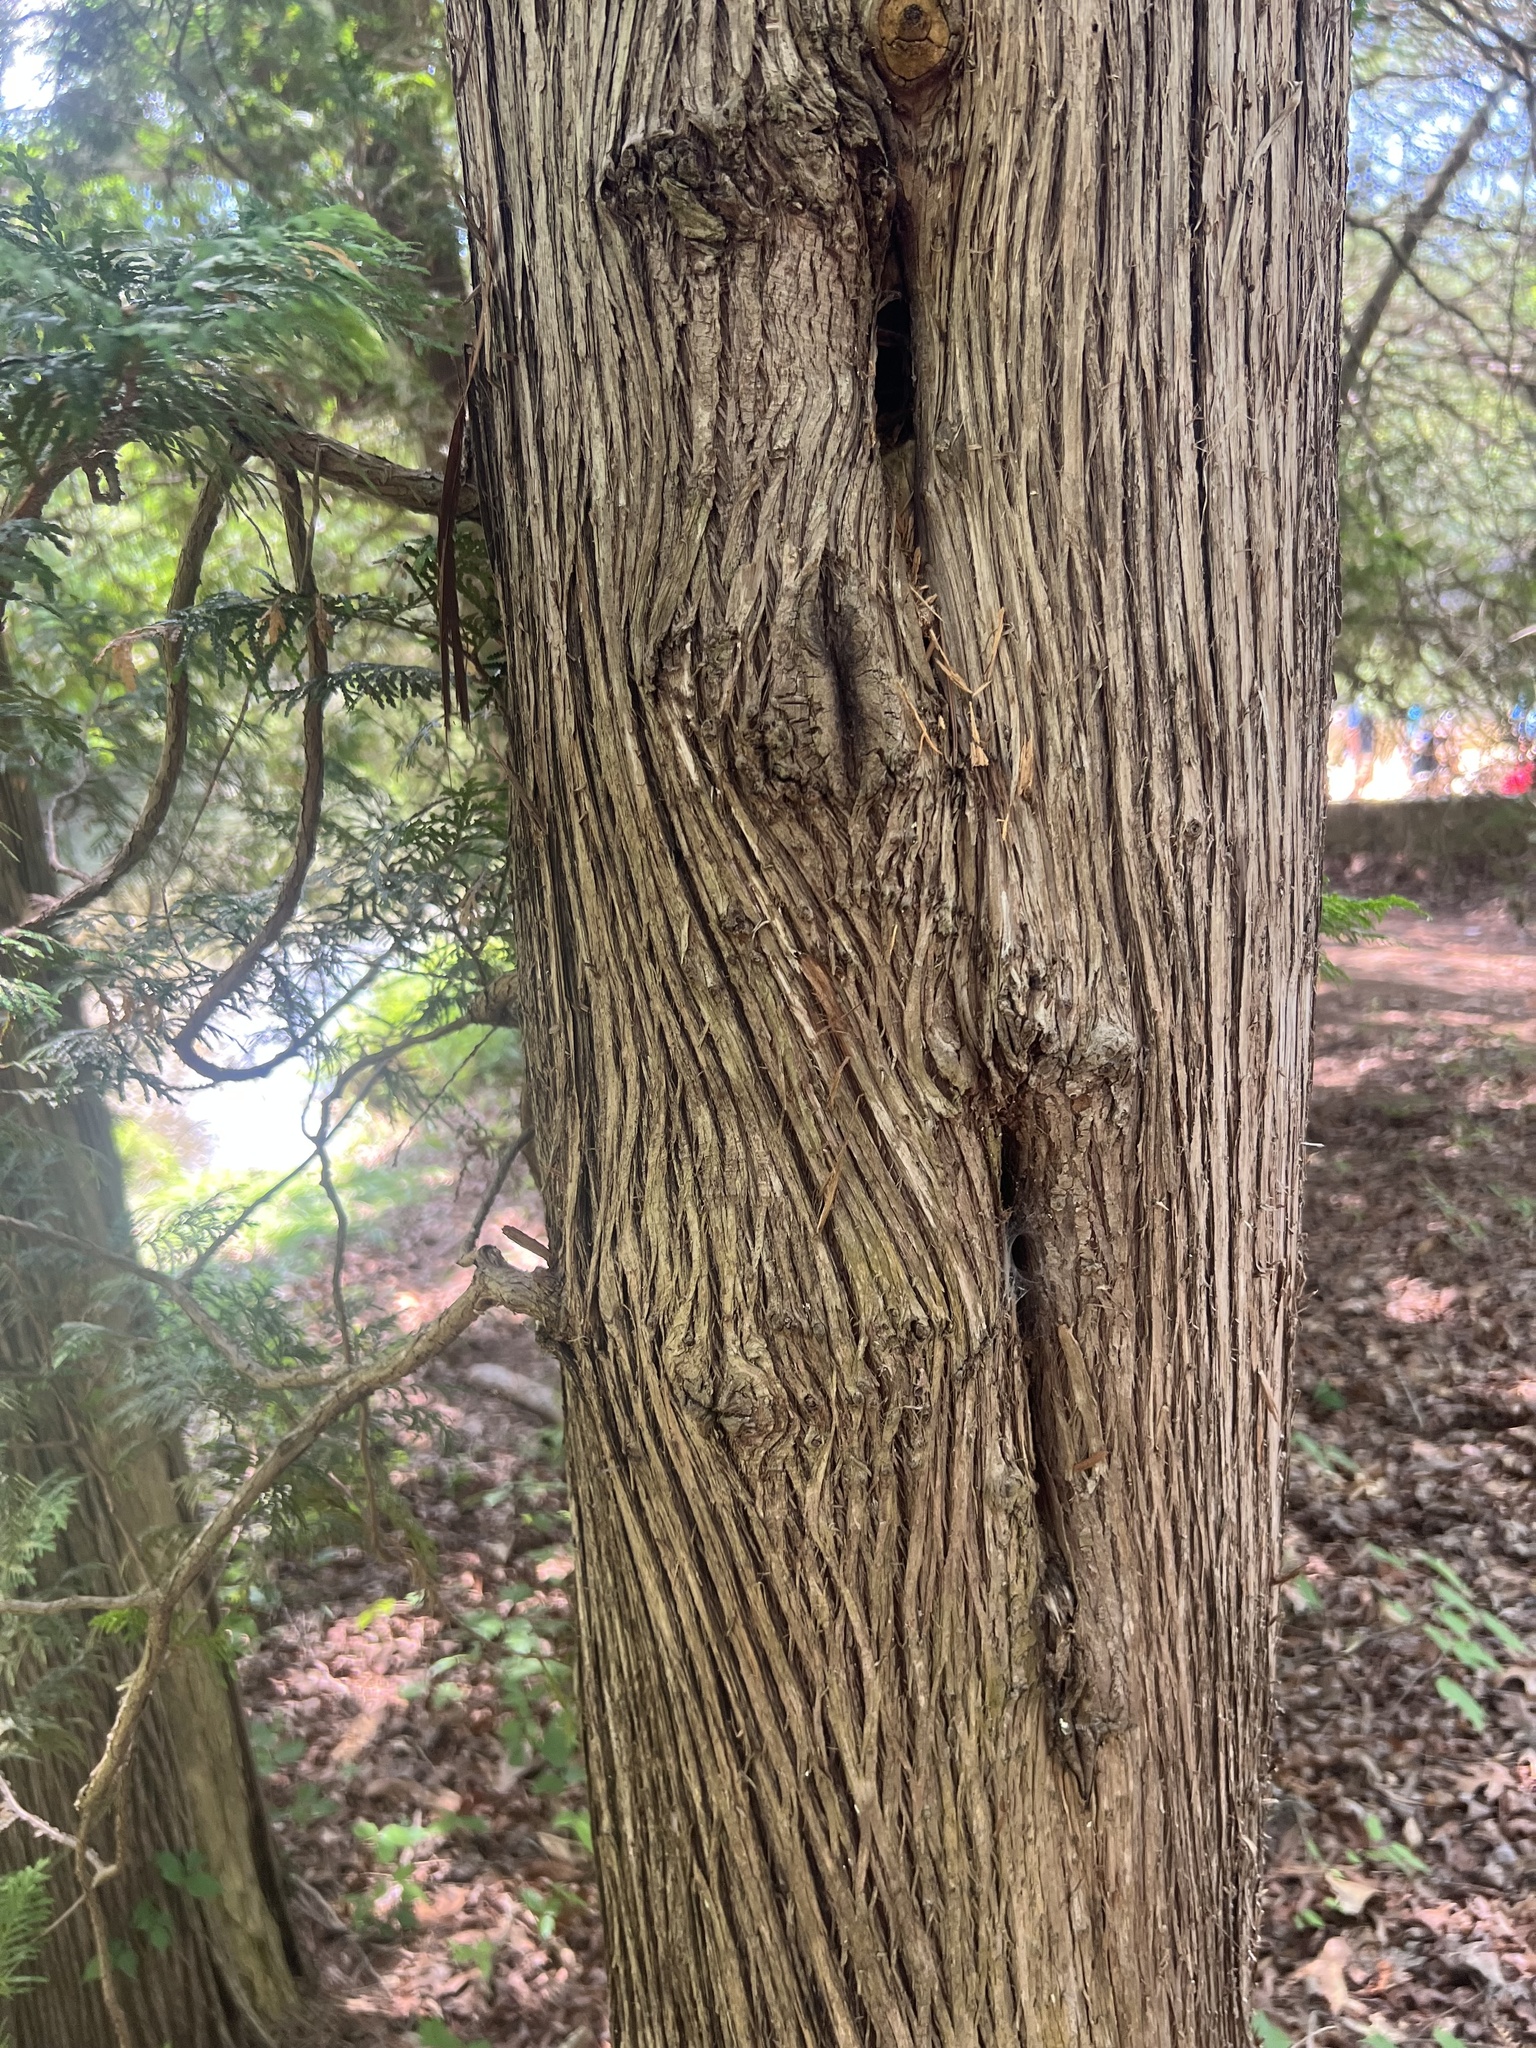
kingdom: Plantae
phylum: Tracheophyta
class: Pinopsida
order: Pinales
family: Cupressaceae
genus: Thuja
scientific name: Thuja occidentalis
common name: Northern white-cedar
